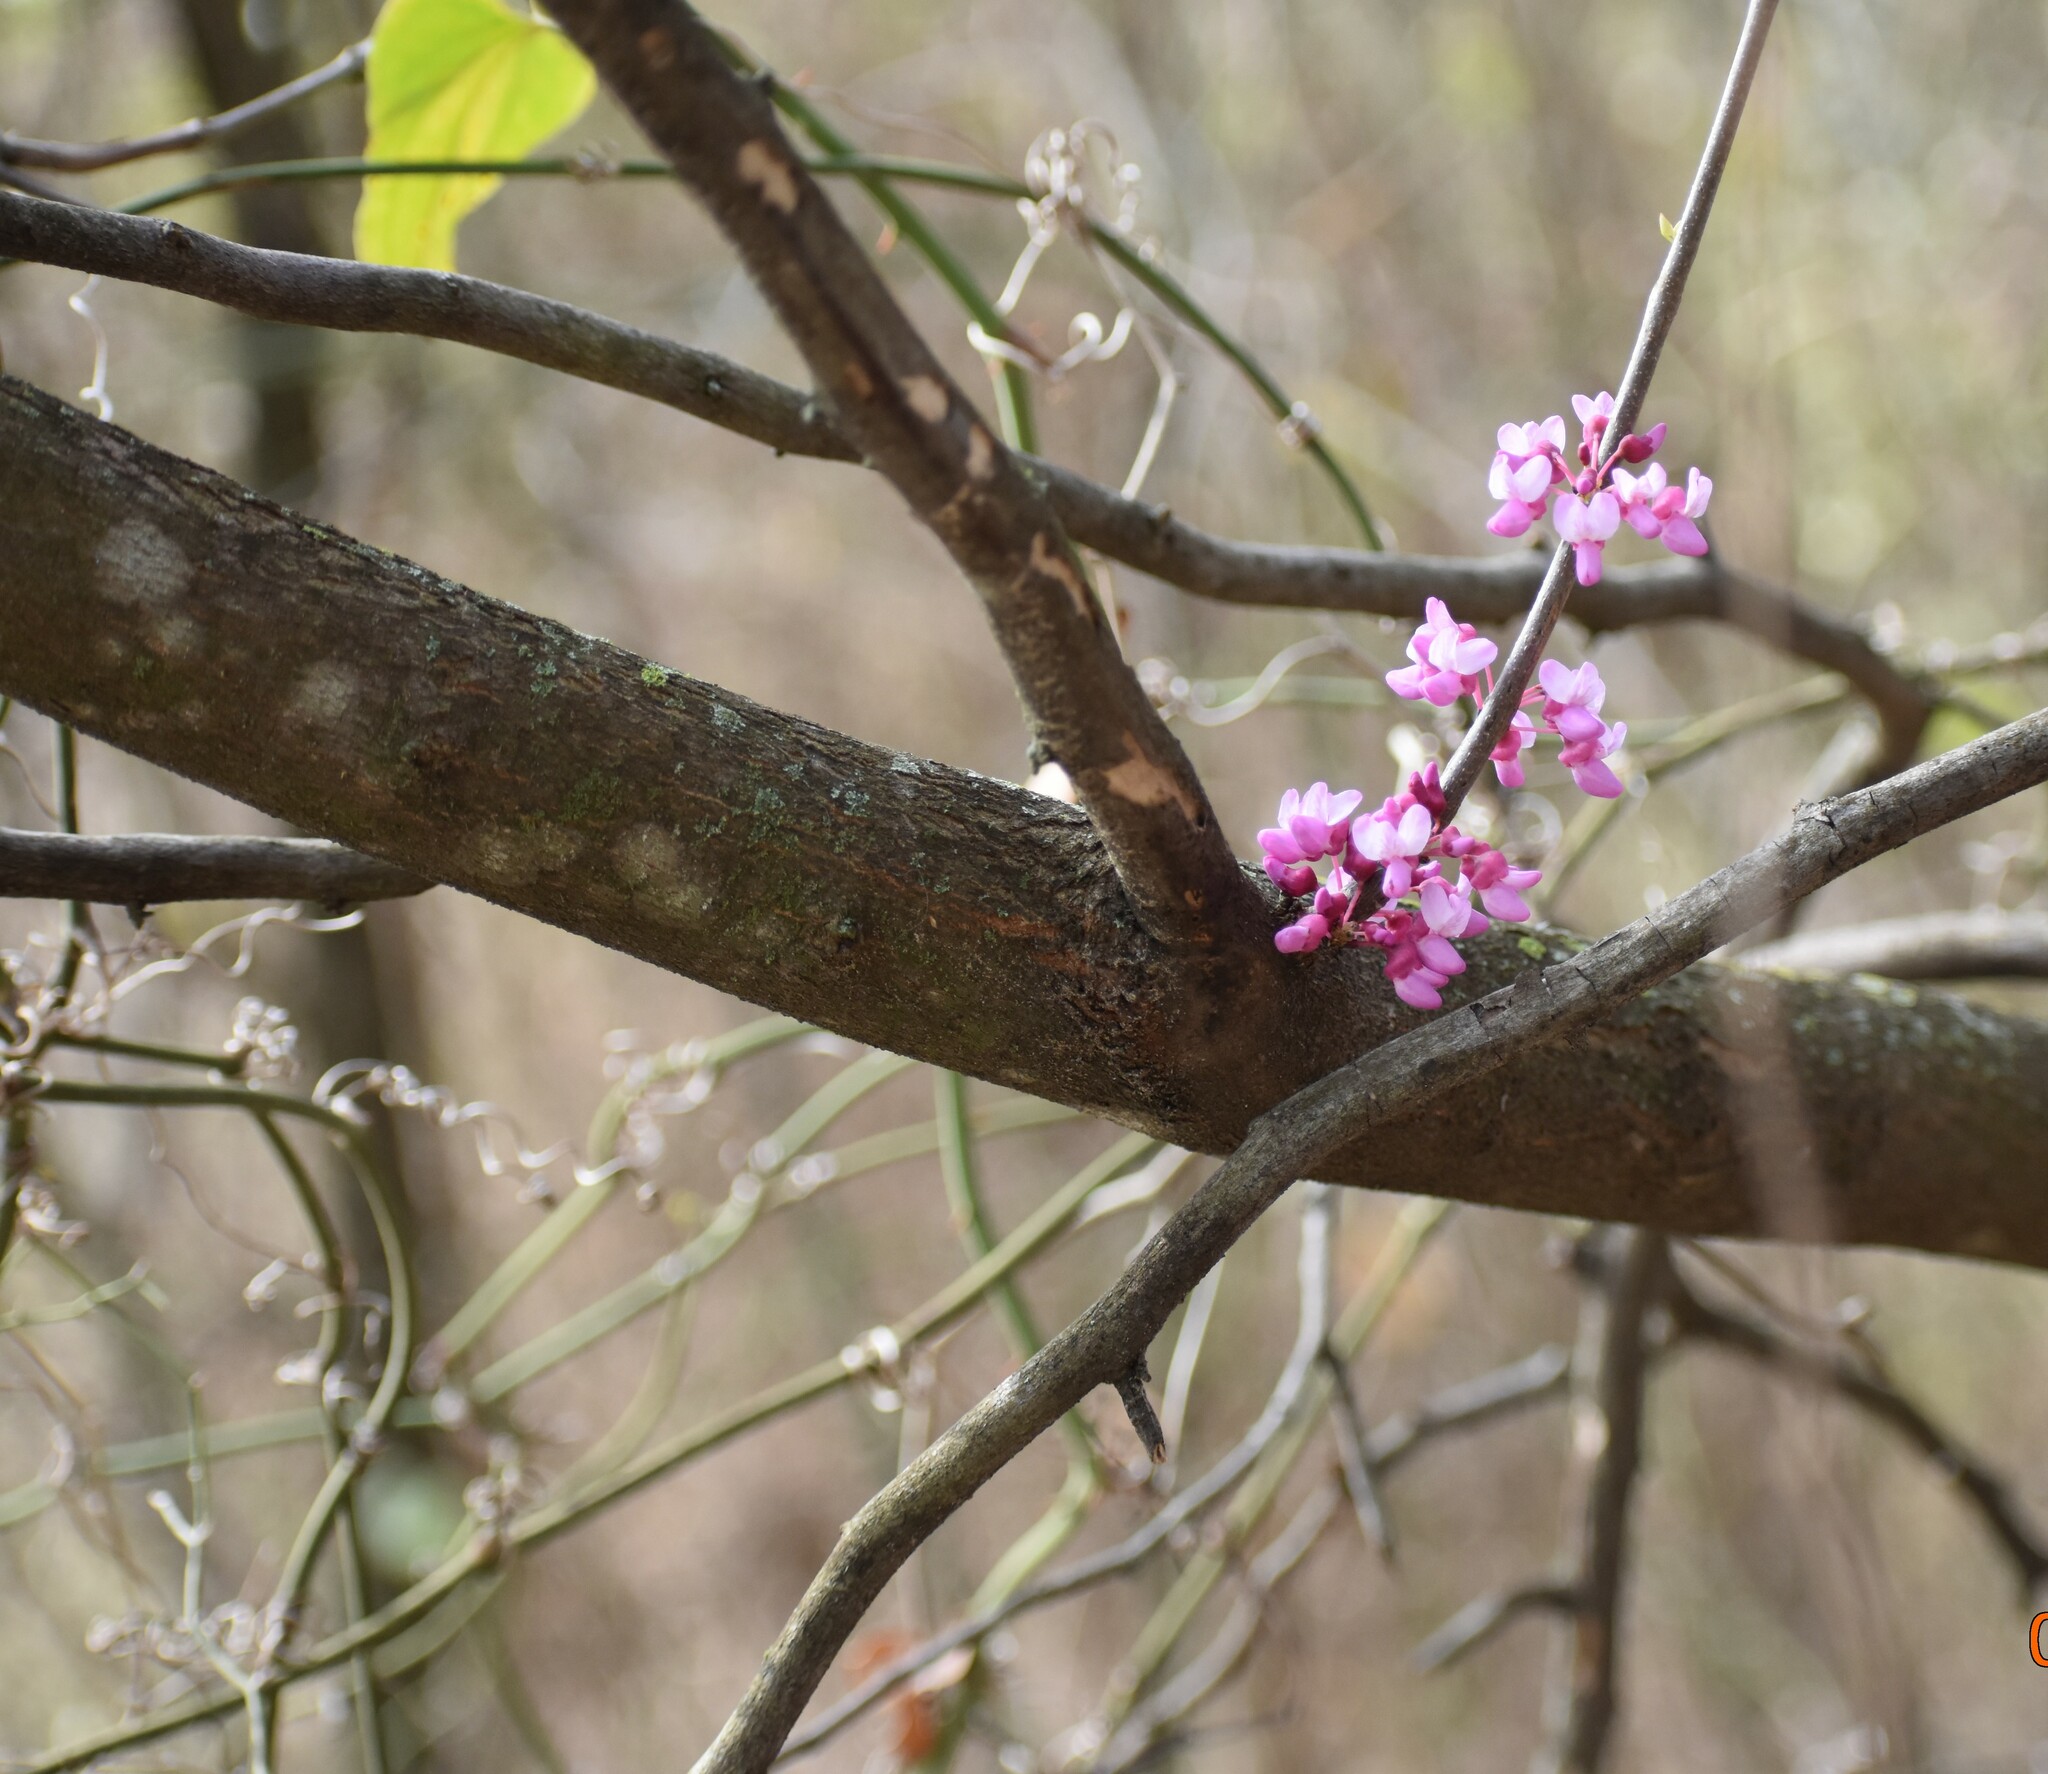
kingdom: Plantae
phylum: Tracheophyta
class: Magnoliopsida
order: Fabales
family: Fabaceae
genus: Cercis
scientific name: Cercis canadensis
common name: Eastern redbud
